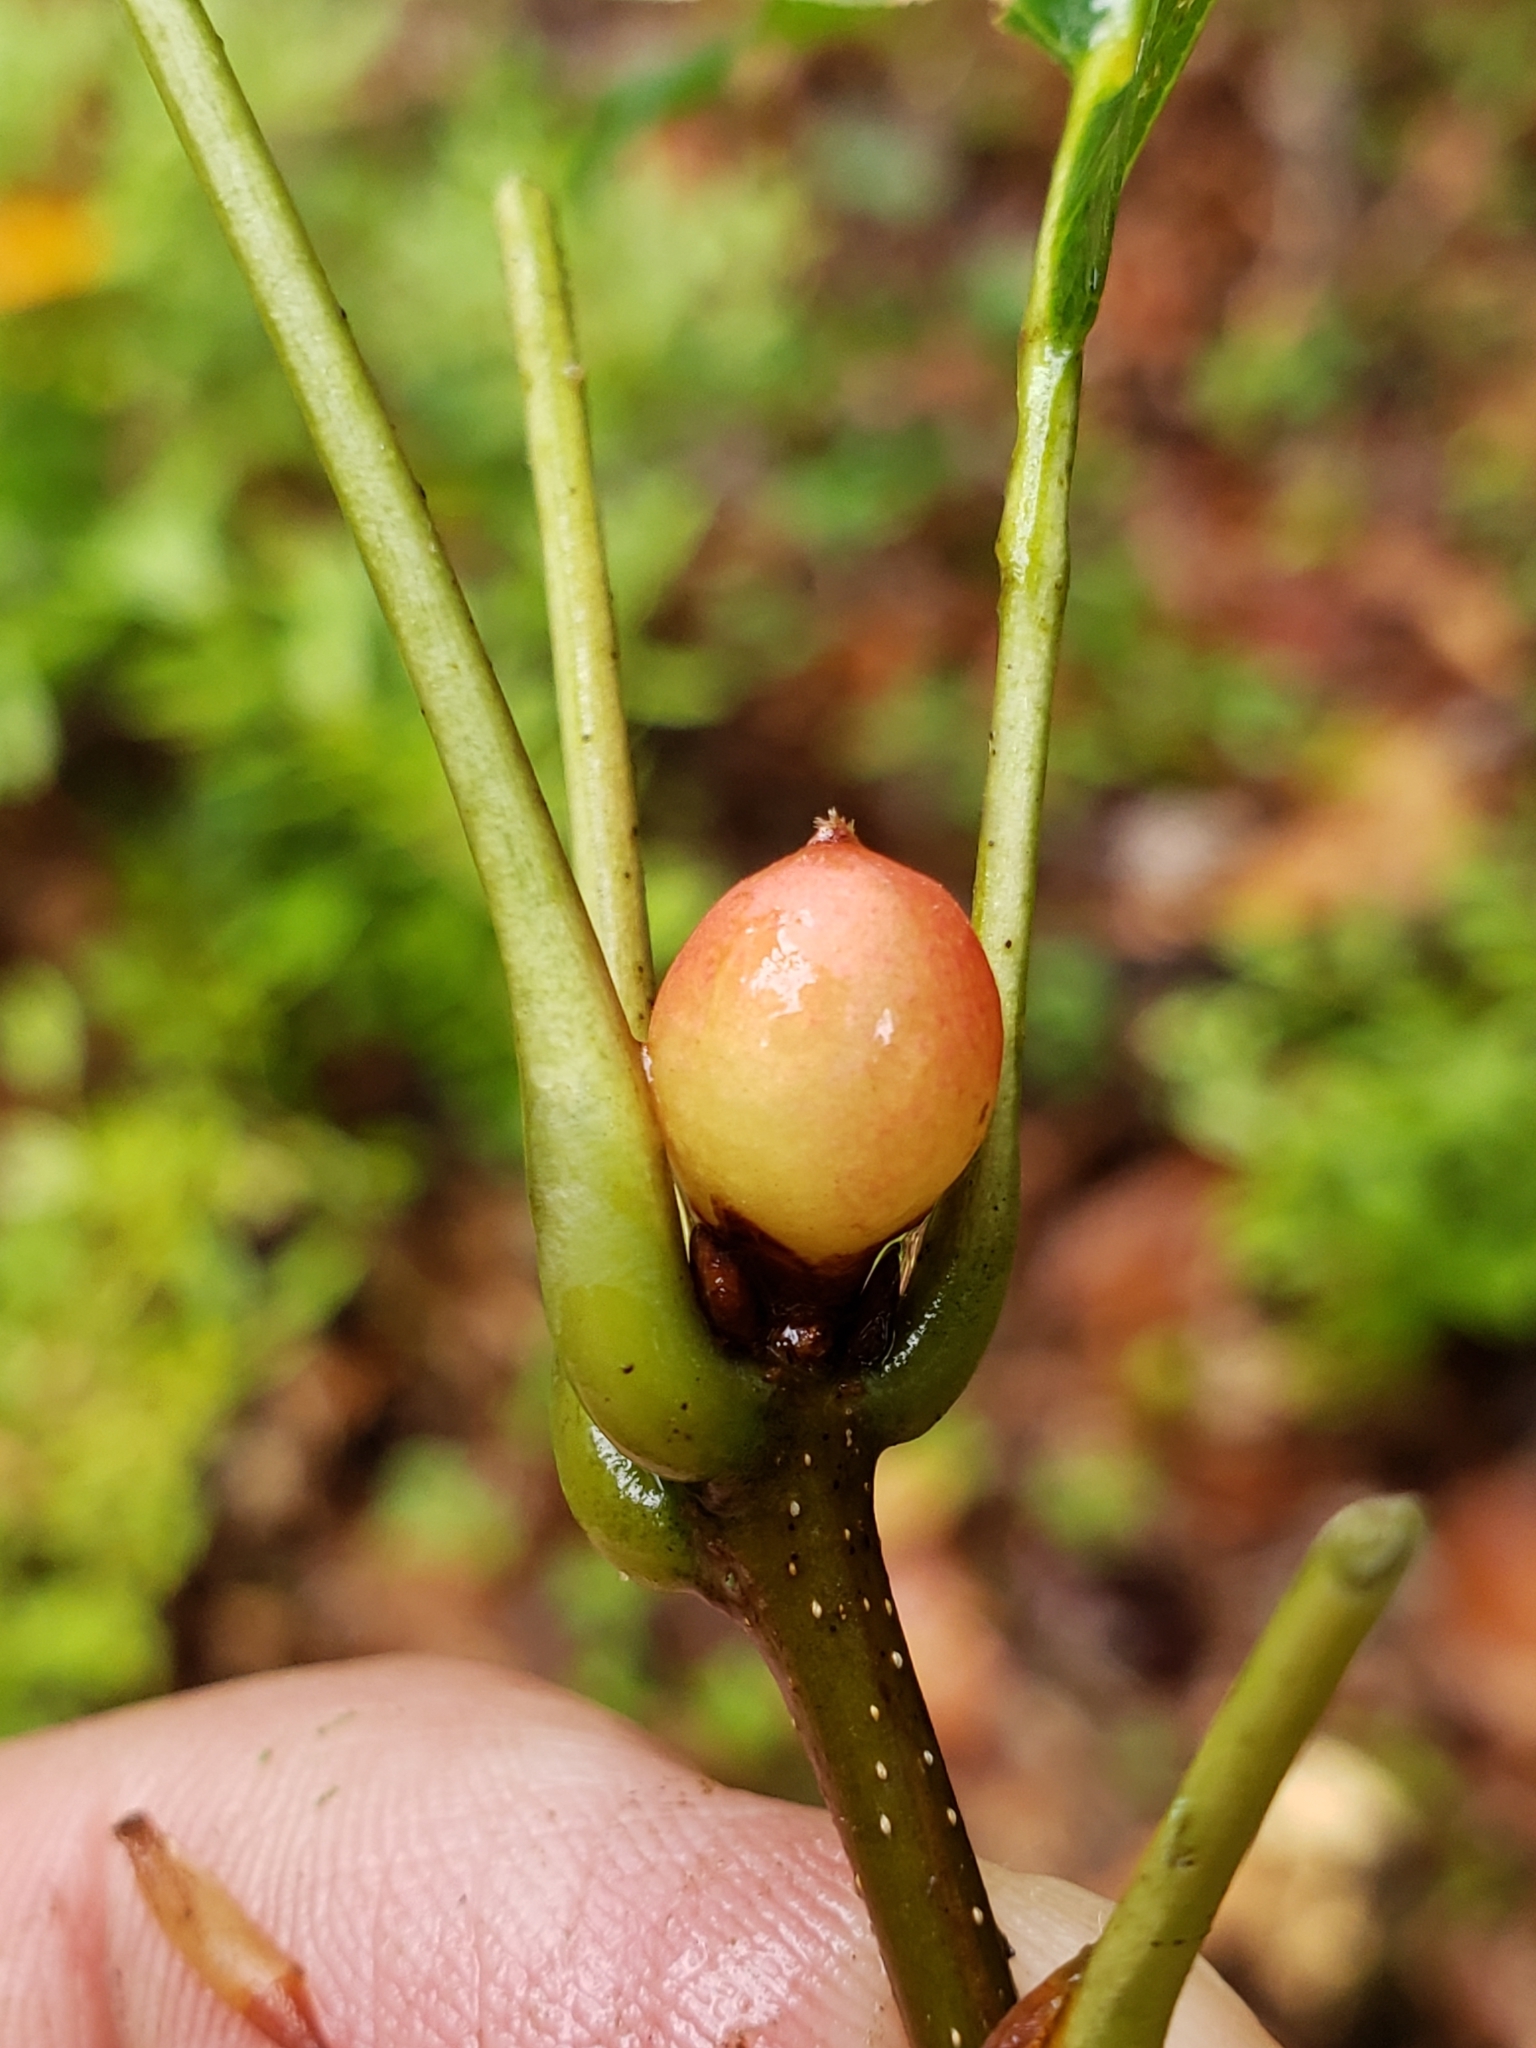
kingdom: Animalia
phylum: Arthropoda
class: Insecta
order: Hymenoptera
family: Cynipidae
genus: Amphibolips
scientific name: Amphibolips
